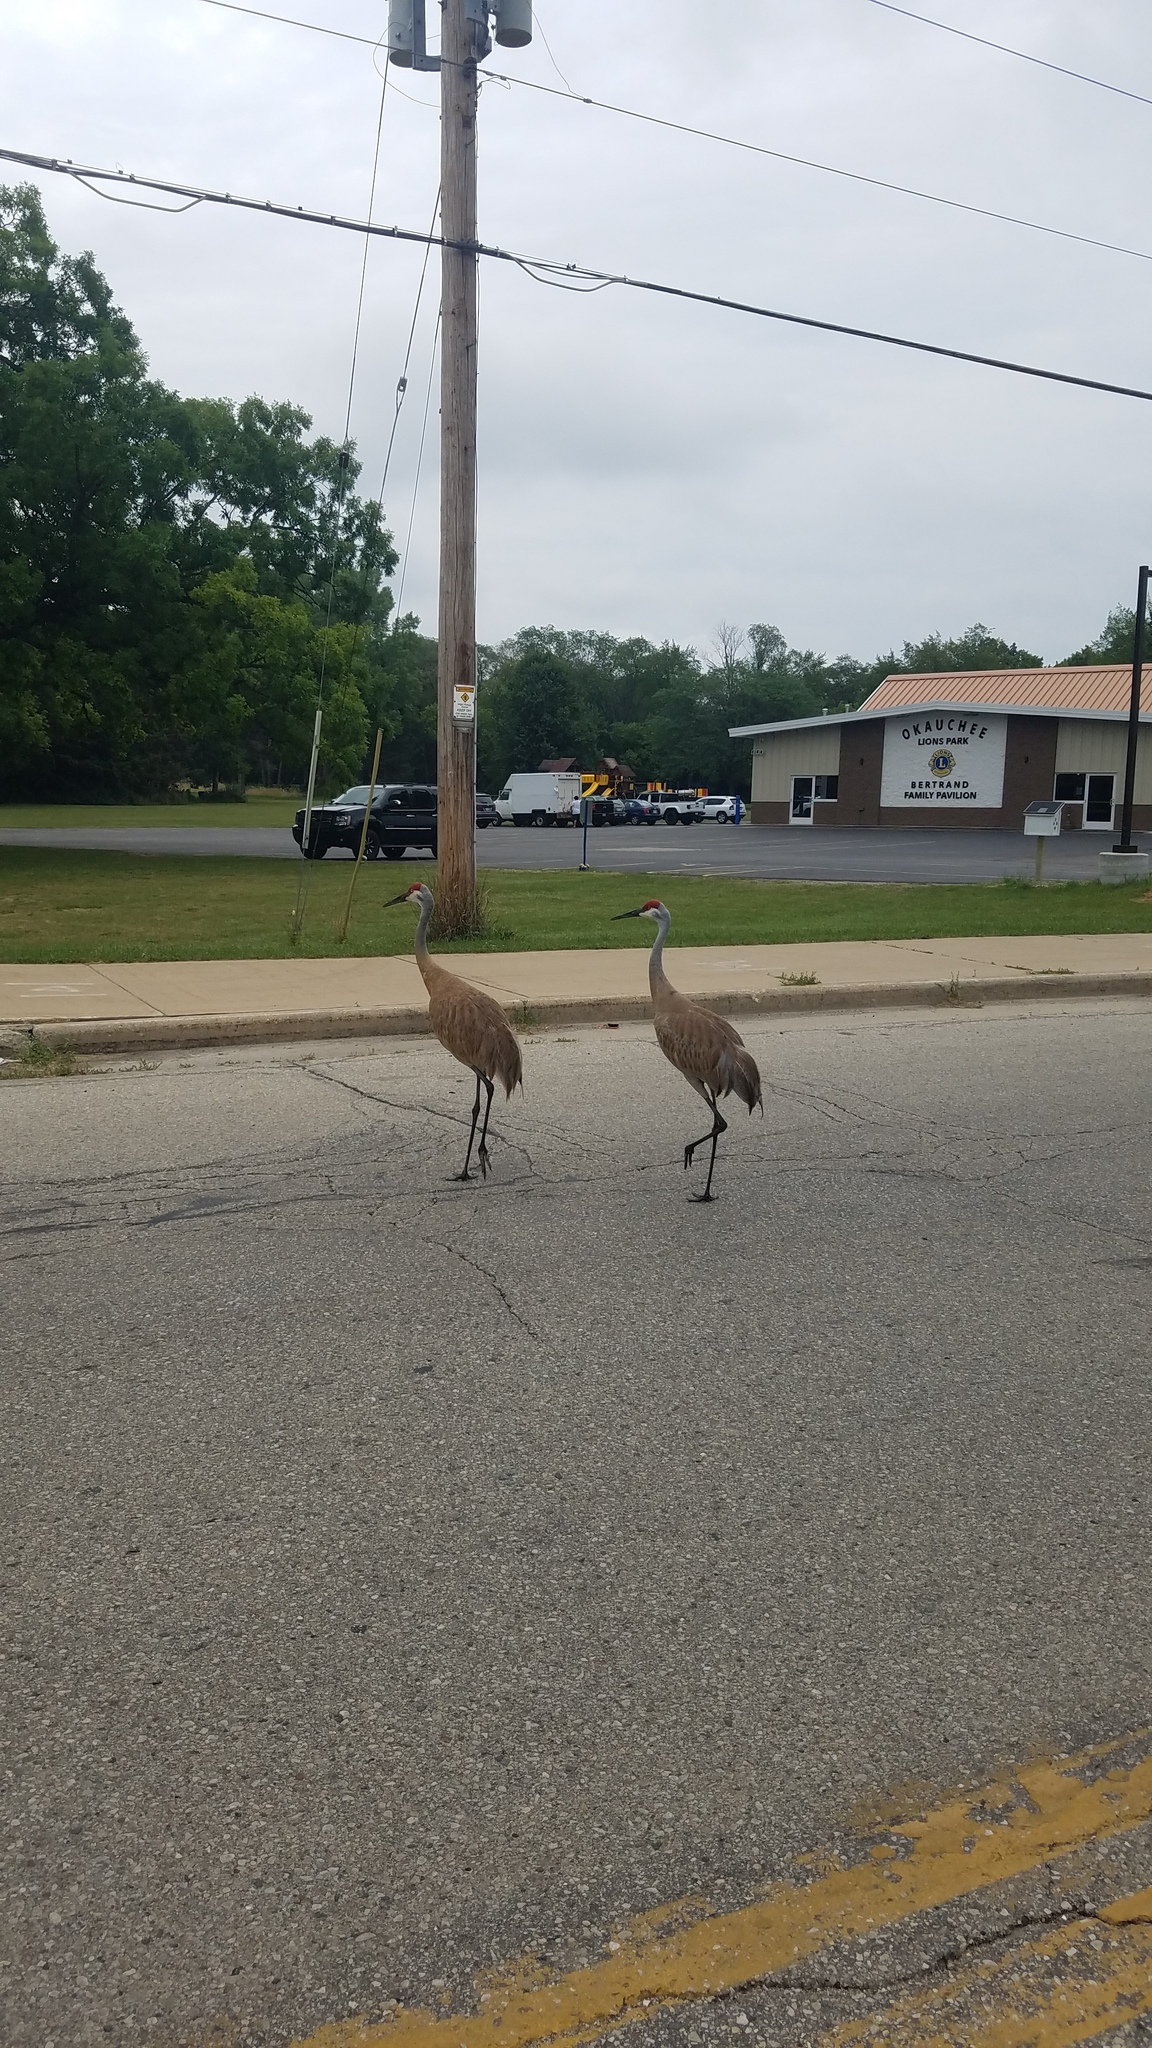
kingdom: Animalia
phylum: Chordata
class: Aves
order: Gruiformes
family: Gruidae
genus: Grus
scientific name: Grus canadensis
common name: Sandhill crane
